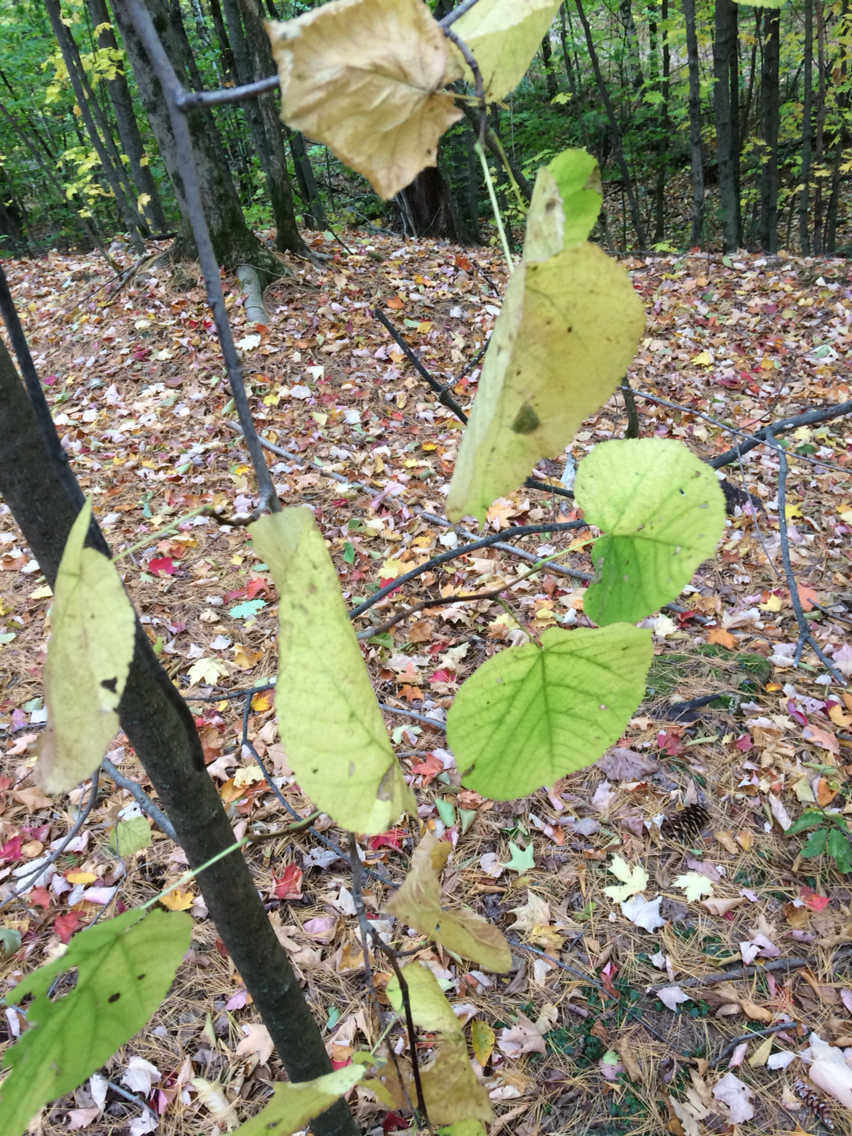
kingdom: Plantae
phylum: Tracheophyta
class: Magnoliopsida
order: Malvales
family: Malvaceae
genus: Tilia
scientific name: Tilia americana
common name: Basswood
